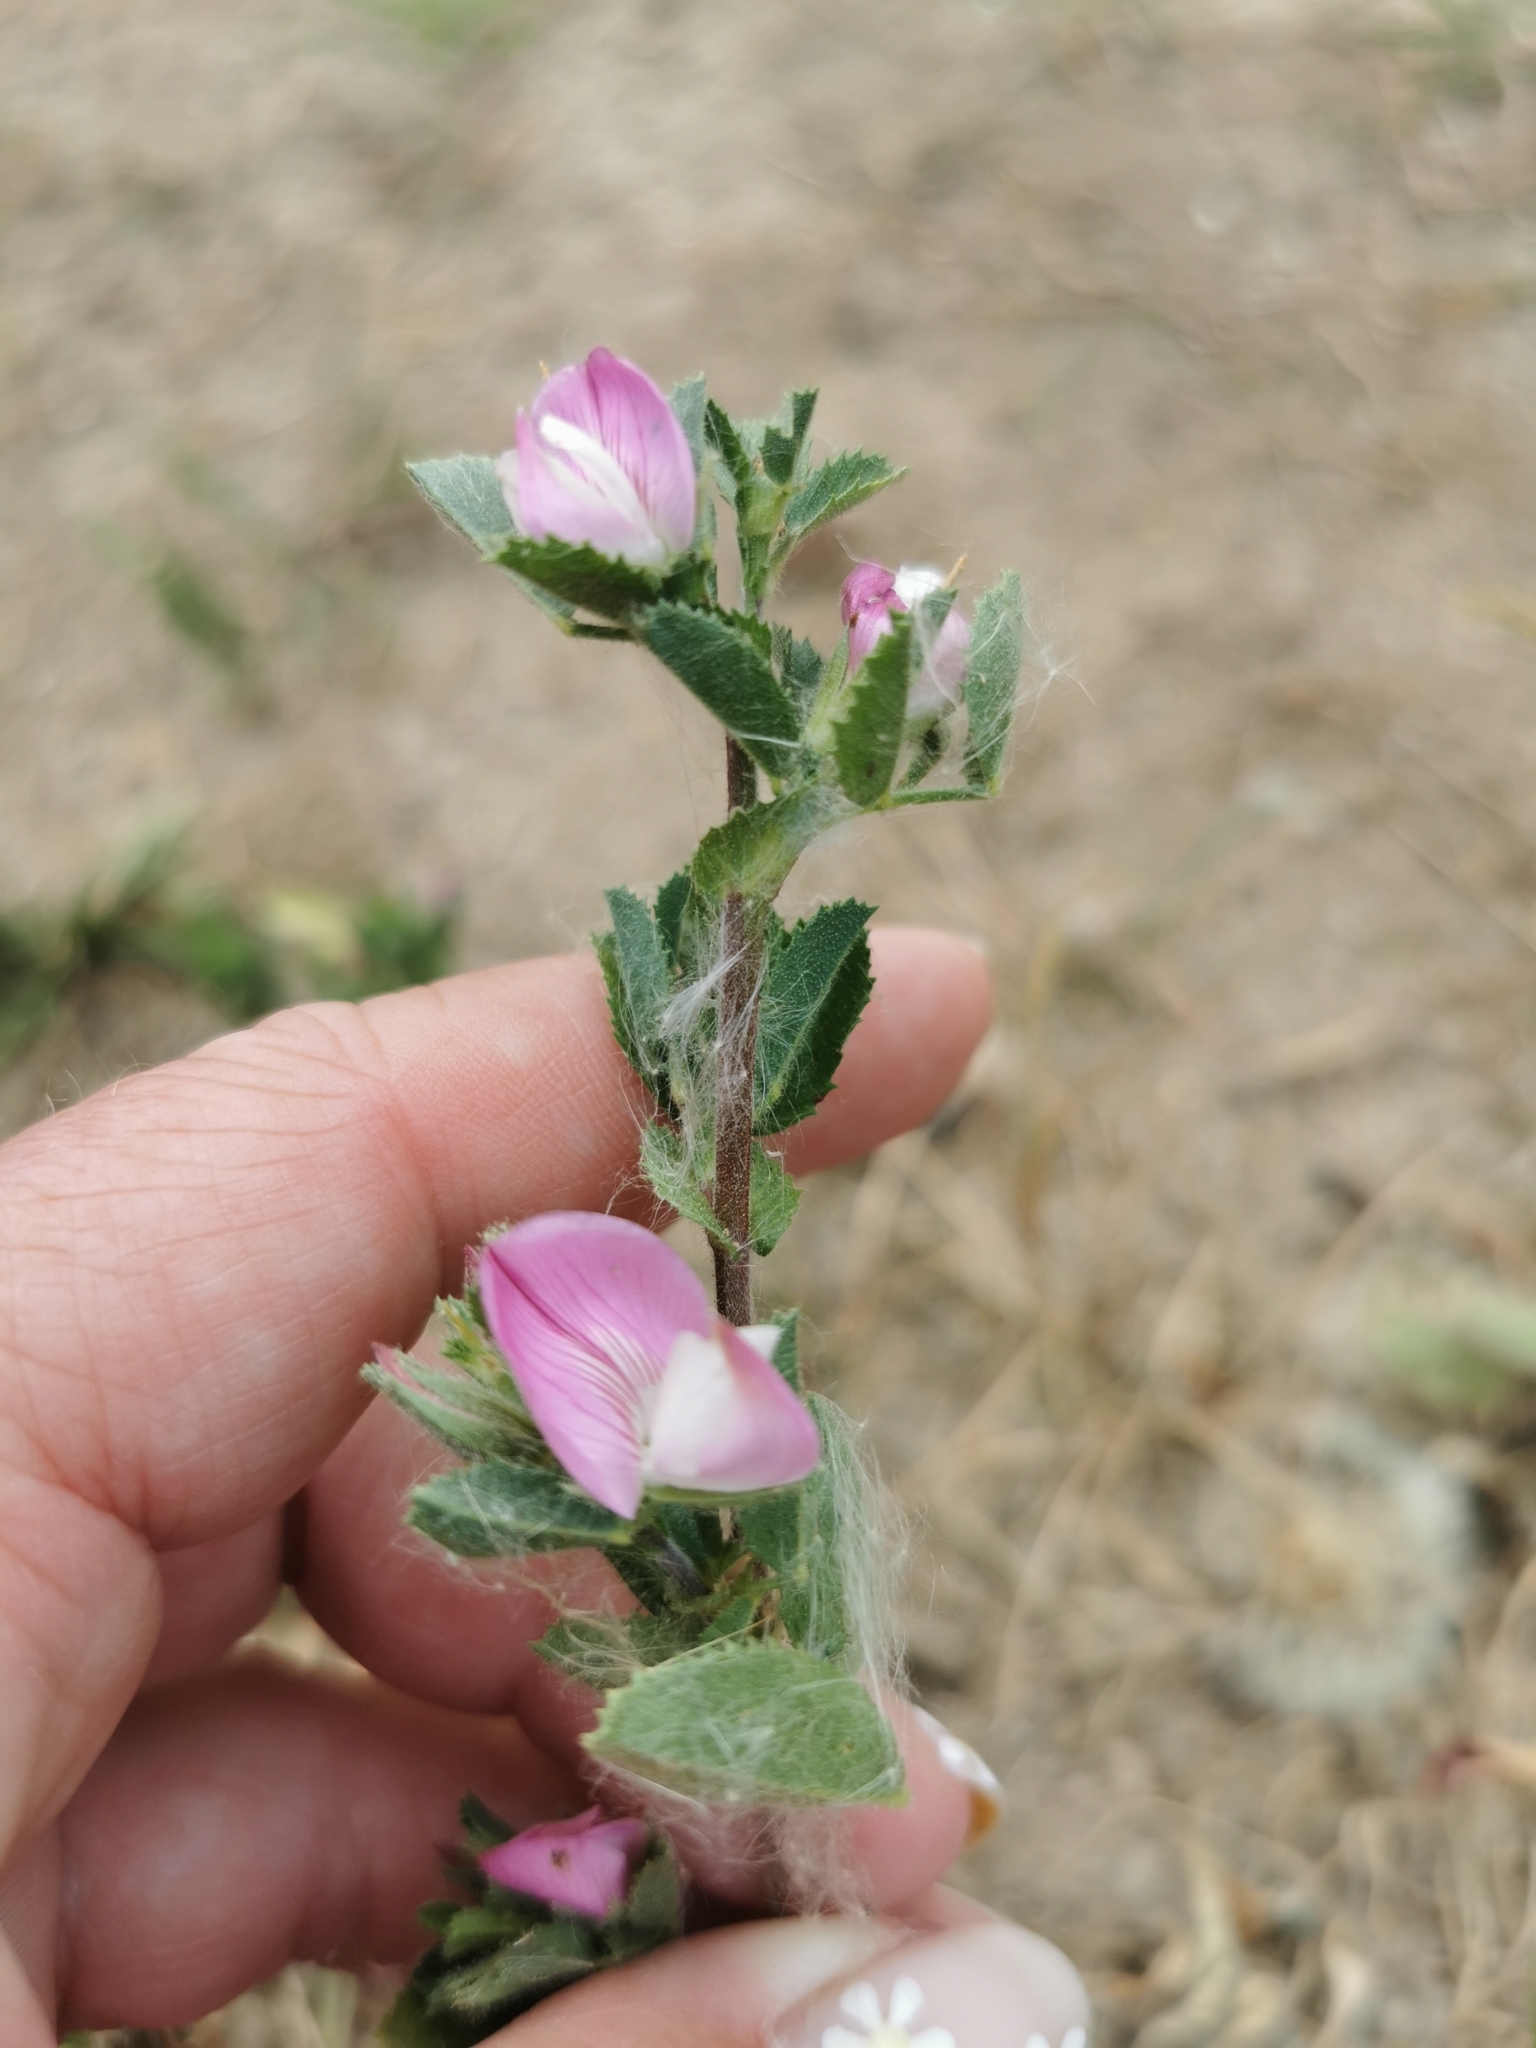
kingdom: Plantae
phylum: Tracheophyta
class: Magnoliopsida
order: Fabales
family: Fabaceae
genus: Ononis
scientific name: Ononis spinosa
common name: Spiny restharrow
